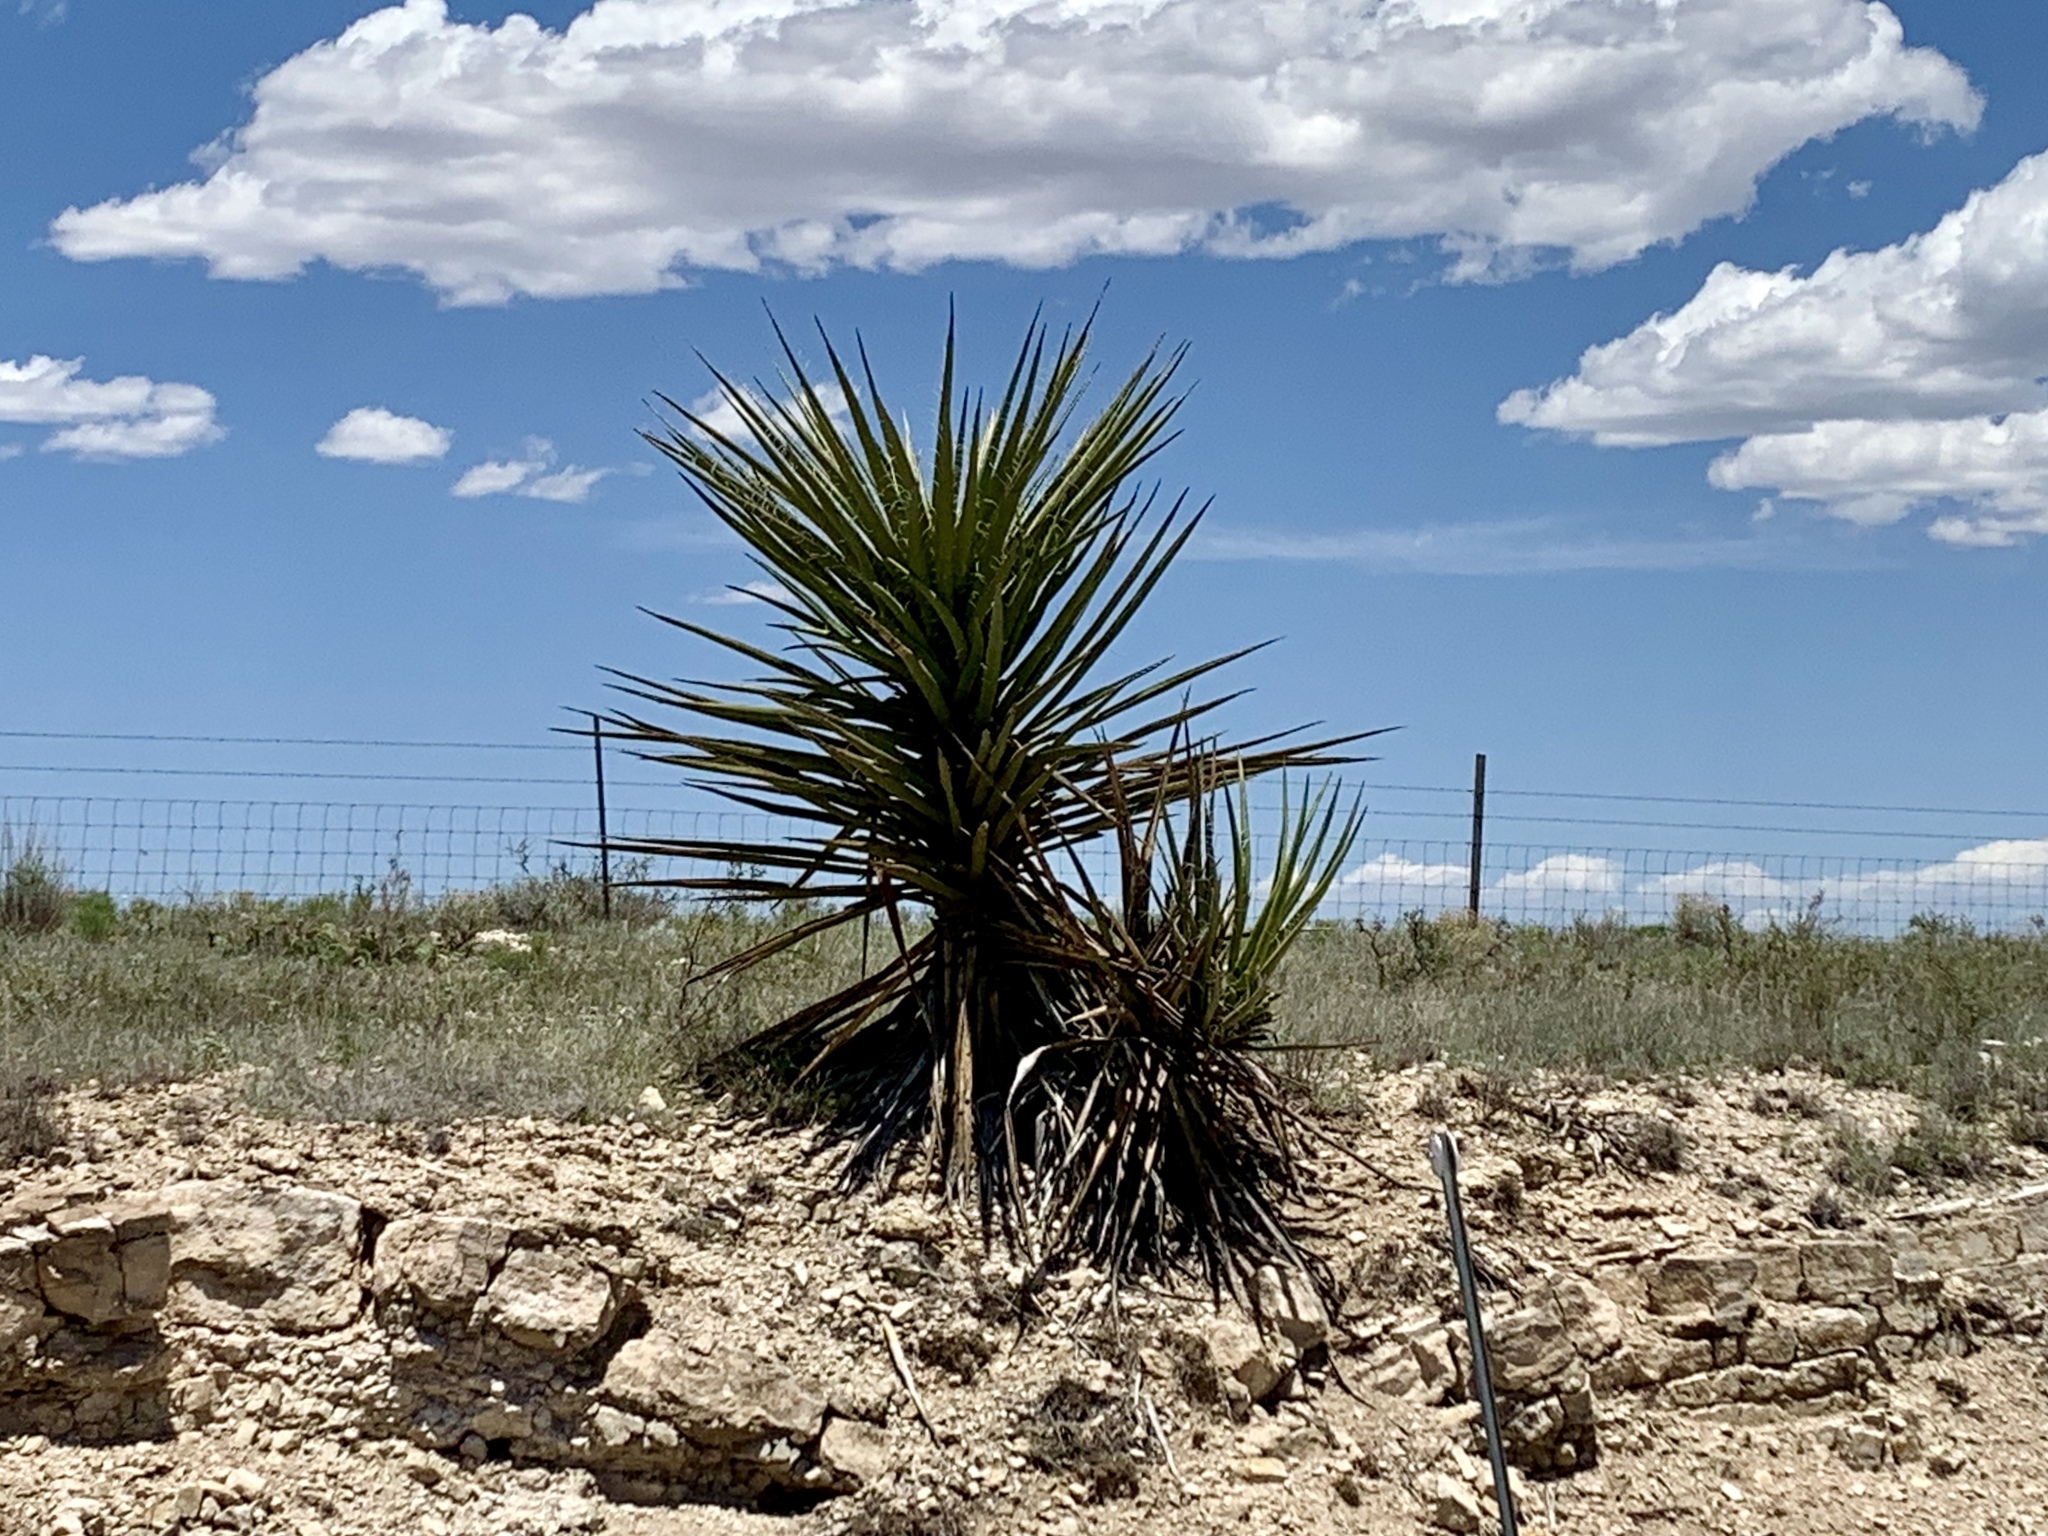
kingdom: Plantae
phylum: Tracheophyta
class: Liliopsida
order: Asparagales
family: Asparagaceae
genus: Yucca
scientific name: Yucca treculiana
